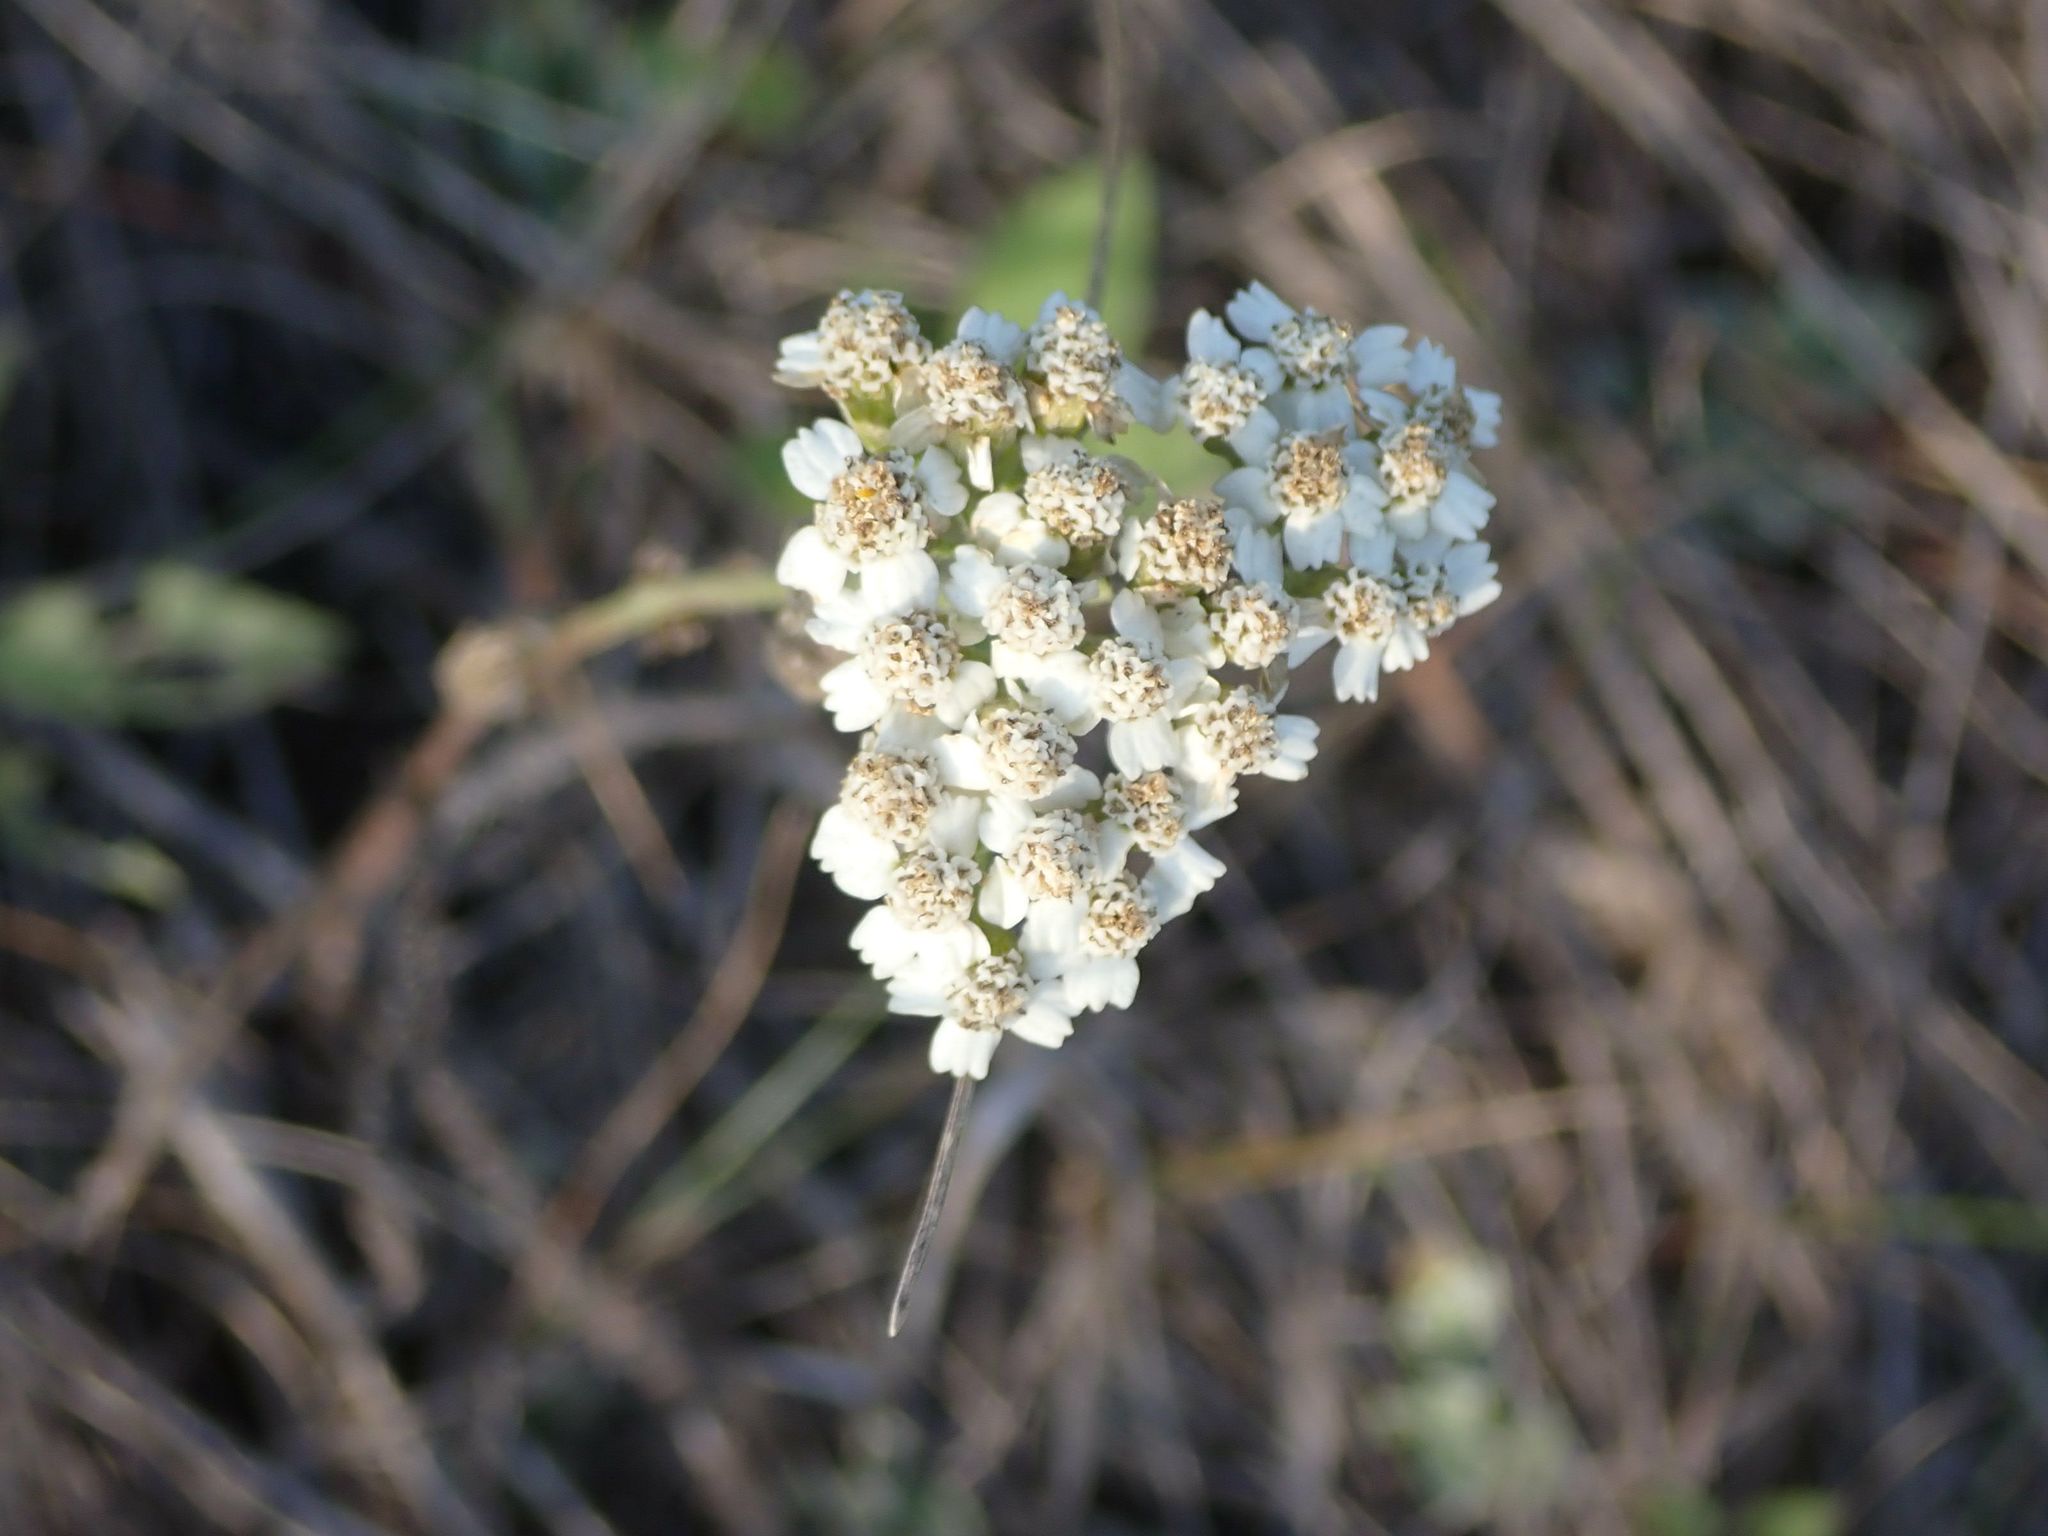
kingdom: Plantae
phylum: Tracheophyta
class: Magnoliopsida
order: Asterales
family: Asteraceae
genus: Achillea
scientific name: Achillea millefolium
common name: Yarrow
